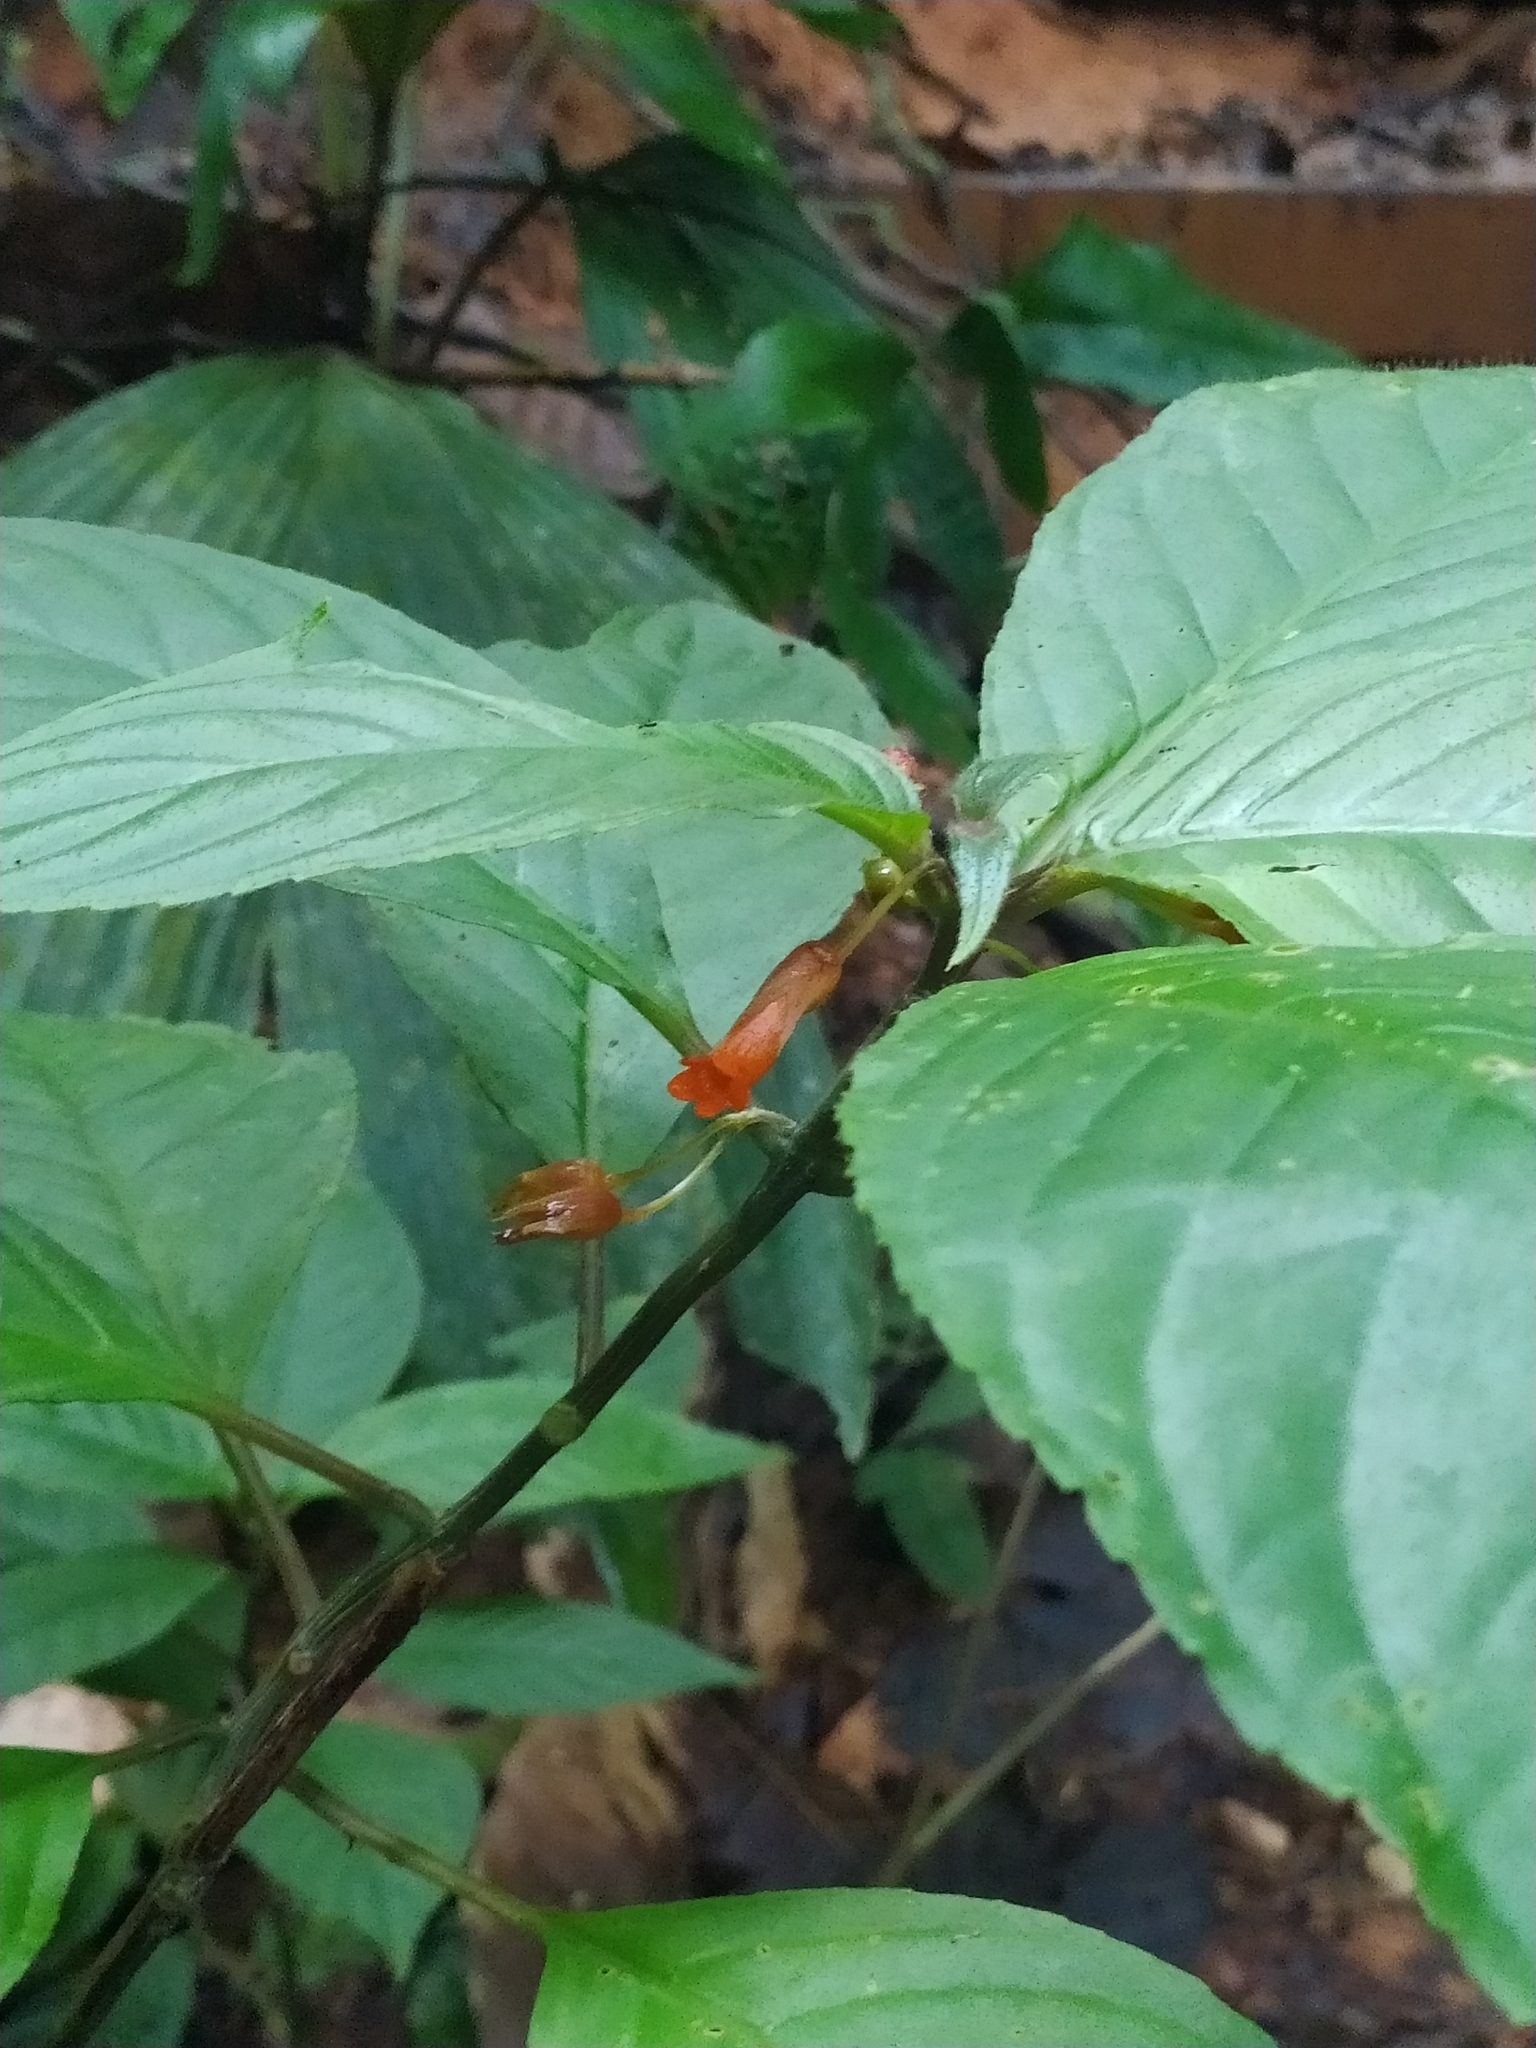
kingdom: Plantae
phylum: Tracheophyta
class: Magnoliopsida
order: Lamiales
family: Gesneriaceae
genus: Besleria
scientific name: Besleria patrisii
